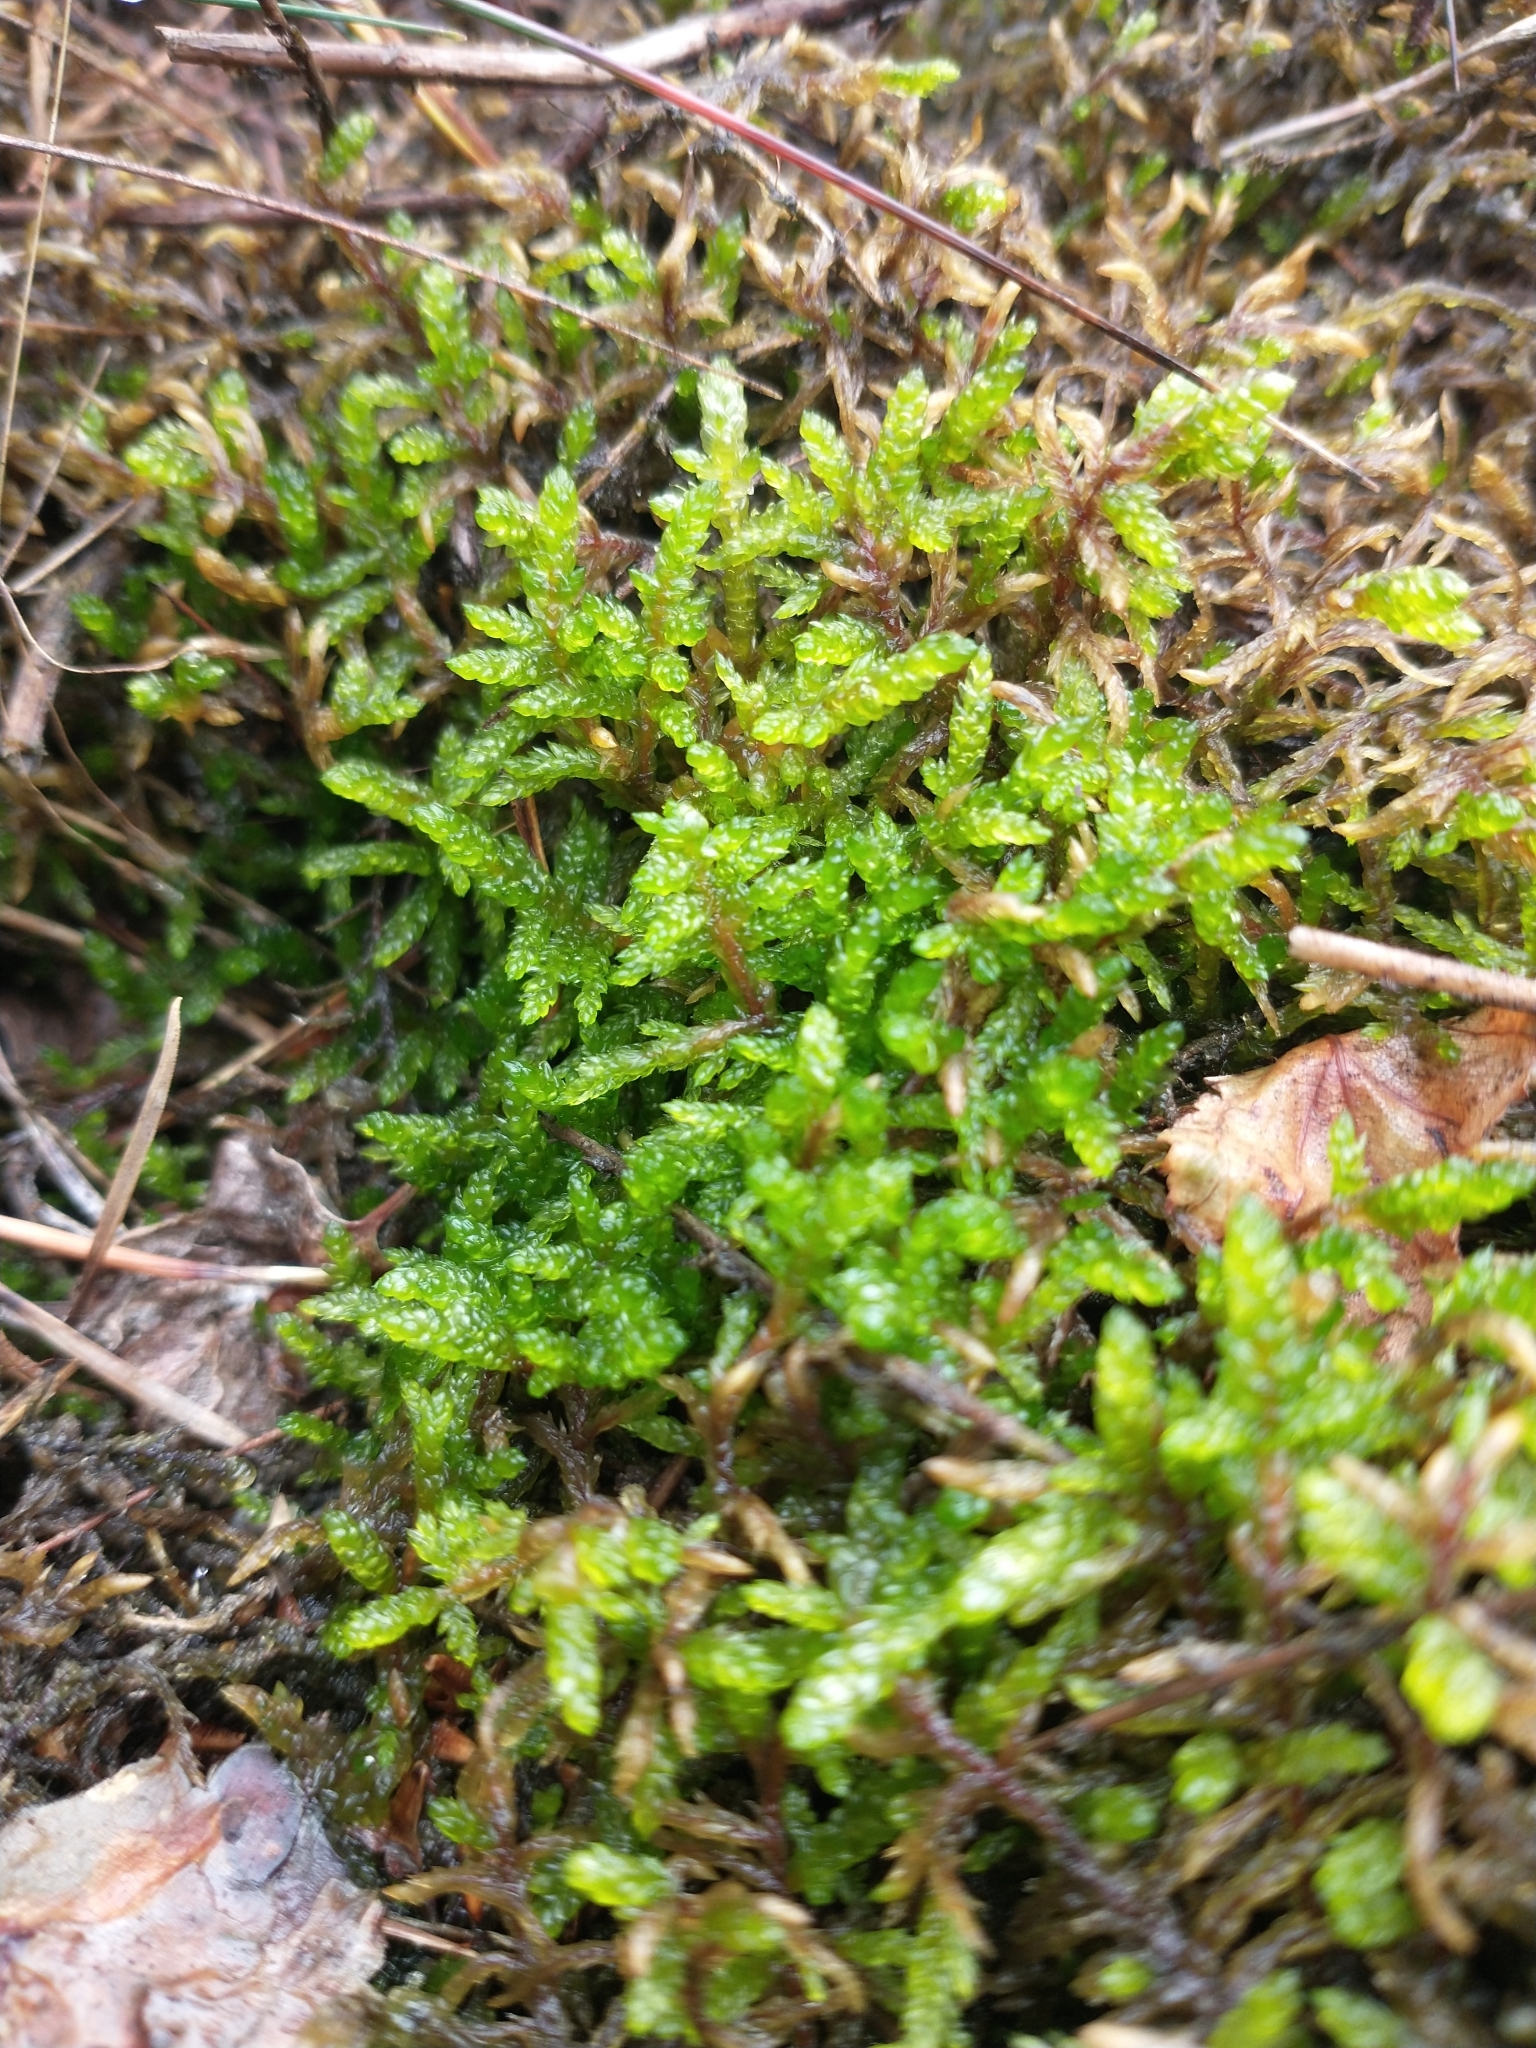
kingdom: Plantae
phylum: Bryophyta
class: Bryopsida
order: Hypnales
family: Hylocomiaceae
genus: Pleurozium
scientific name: Pleurozium schreberi
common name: Red-stemmed feather moss
